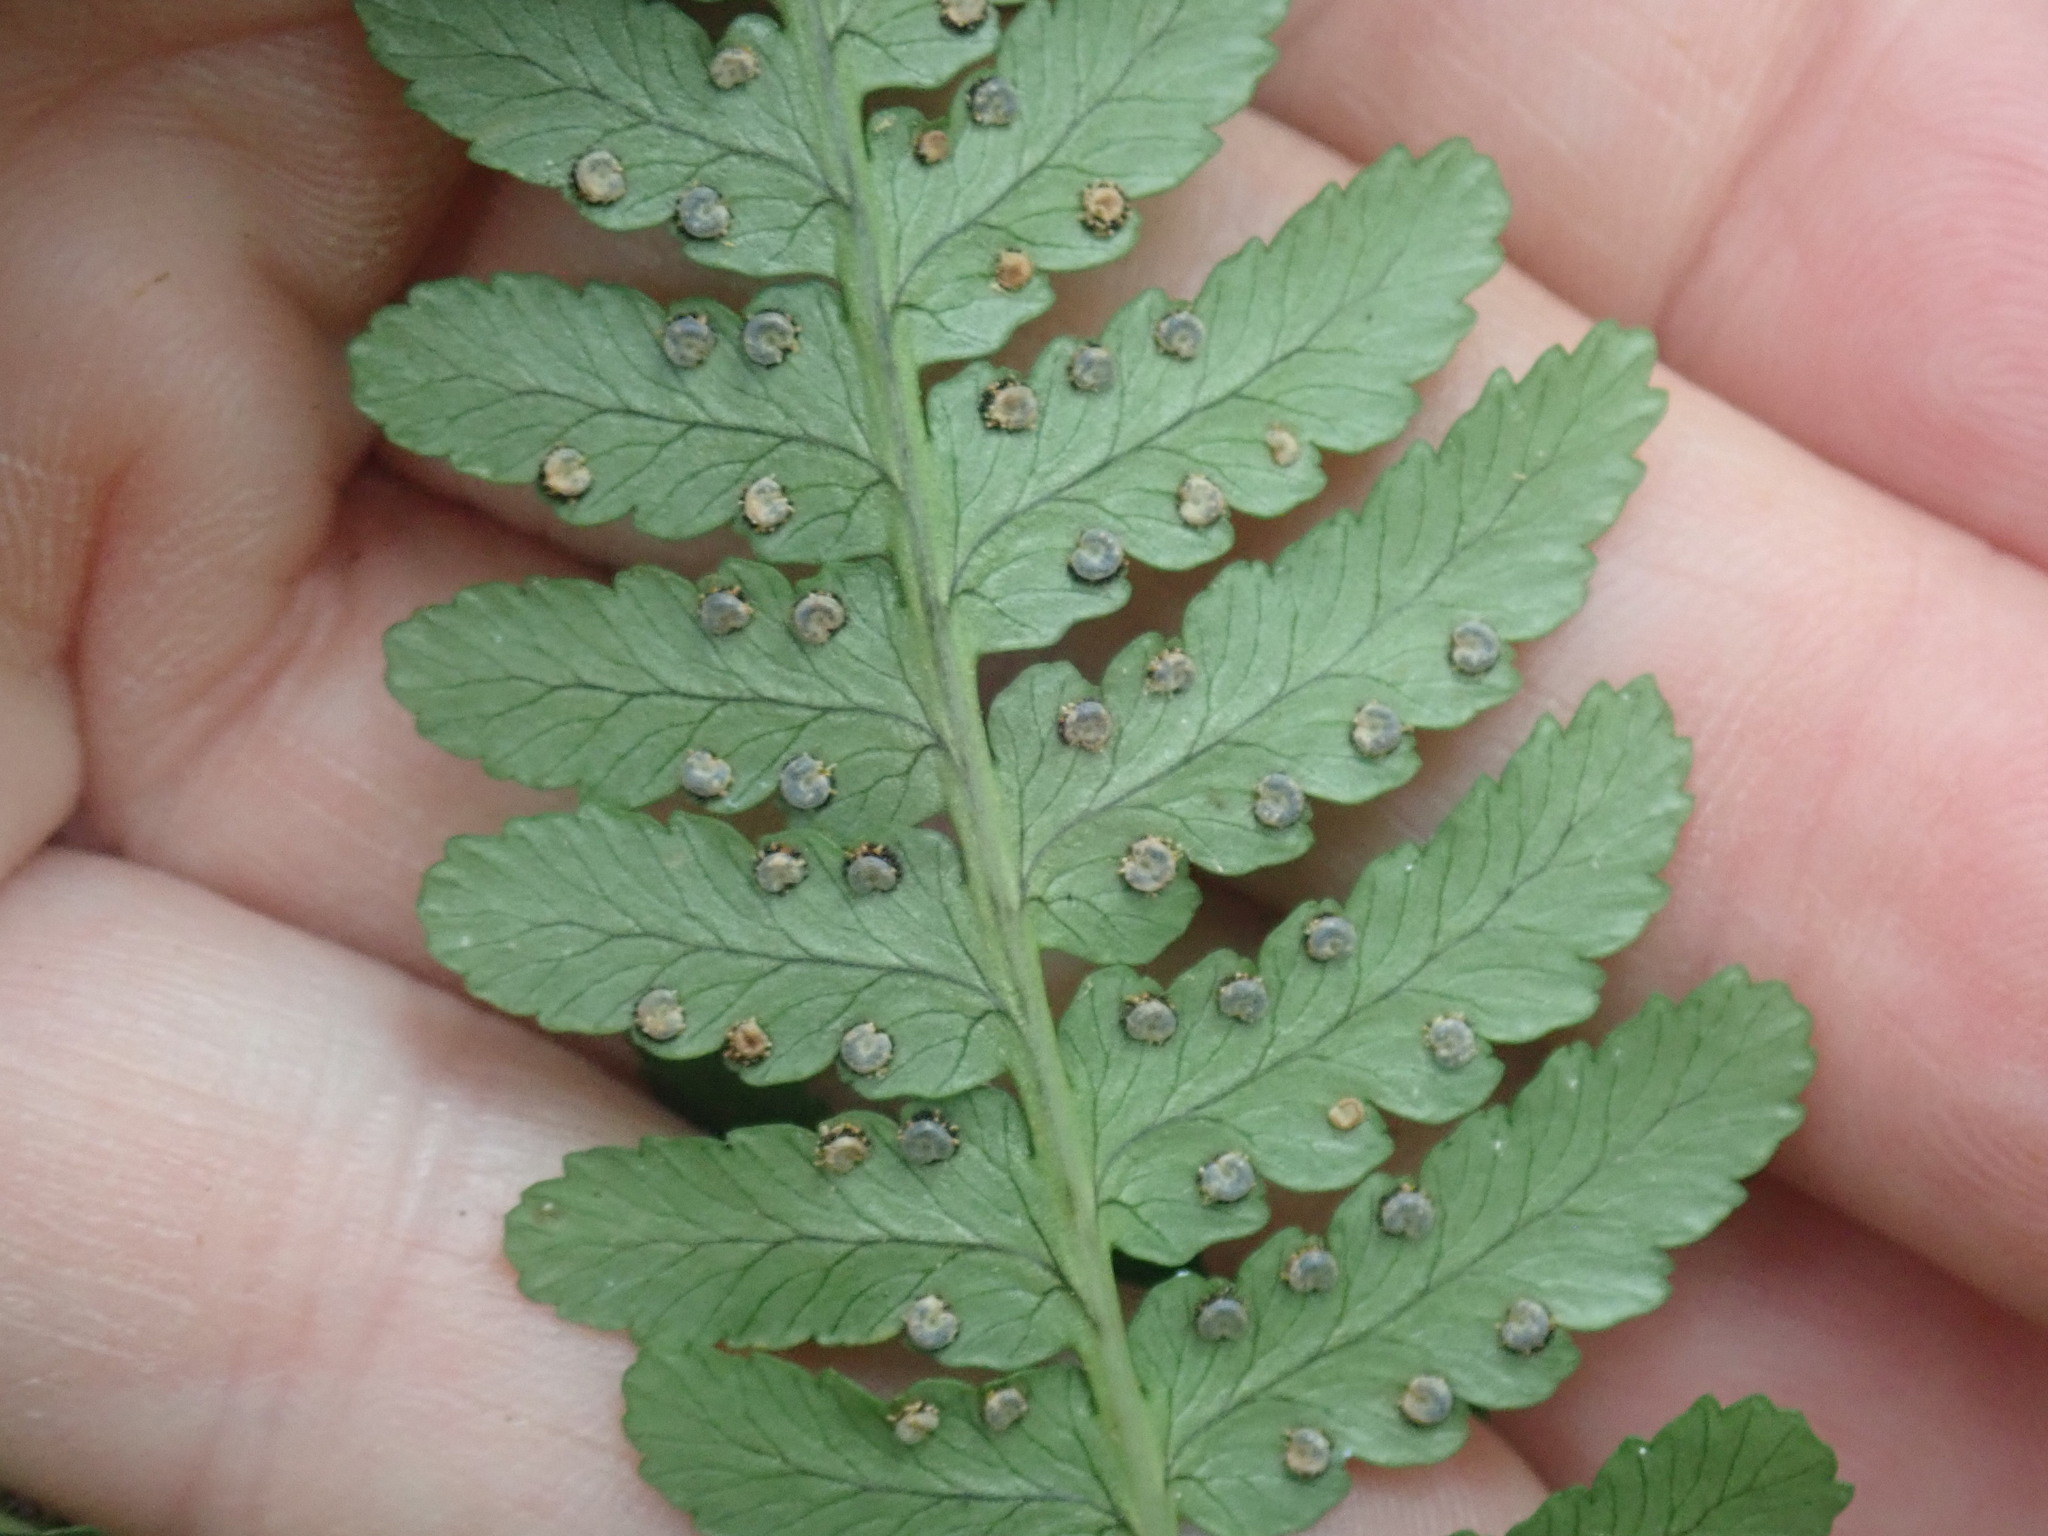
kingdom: Plantae
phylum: Tracheophyta
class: Polypodiopsida
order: Polypodiales
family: Dryopteridaceae
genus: Dryopteris
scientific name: Dryopteris marginalis
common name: Marginal wood fern
